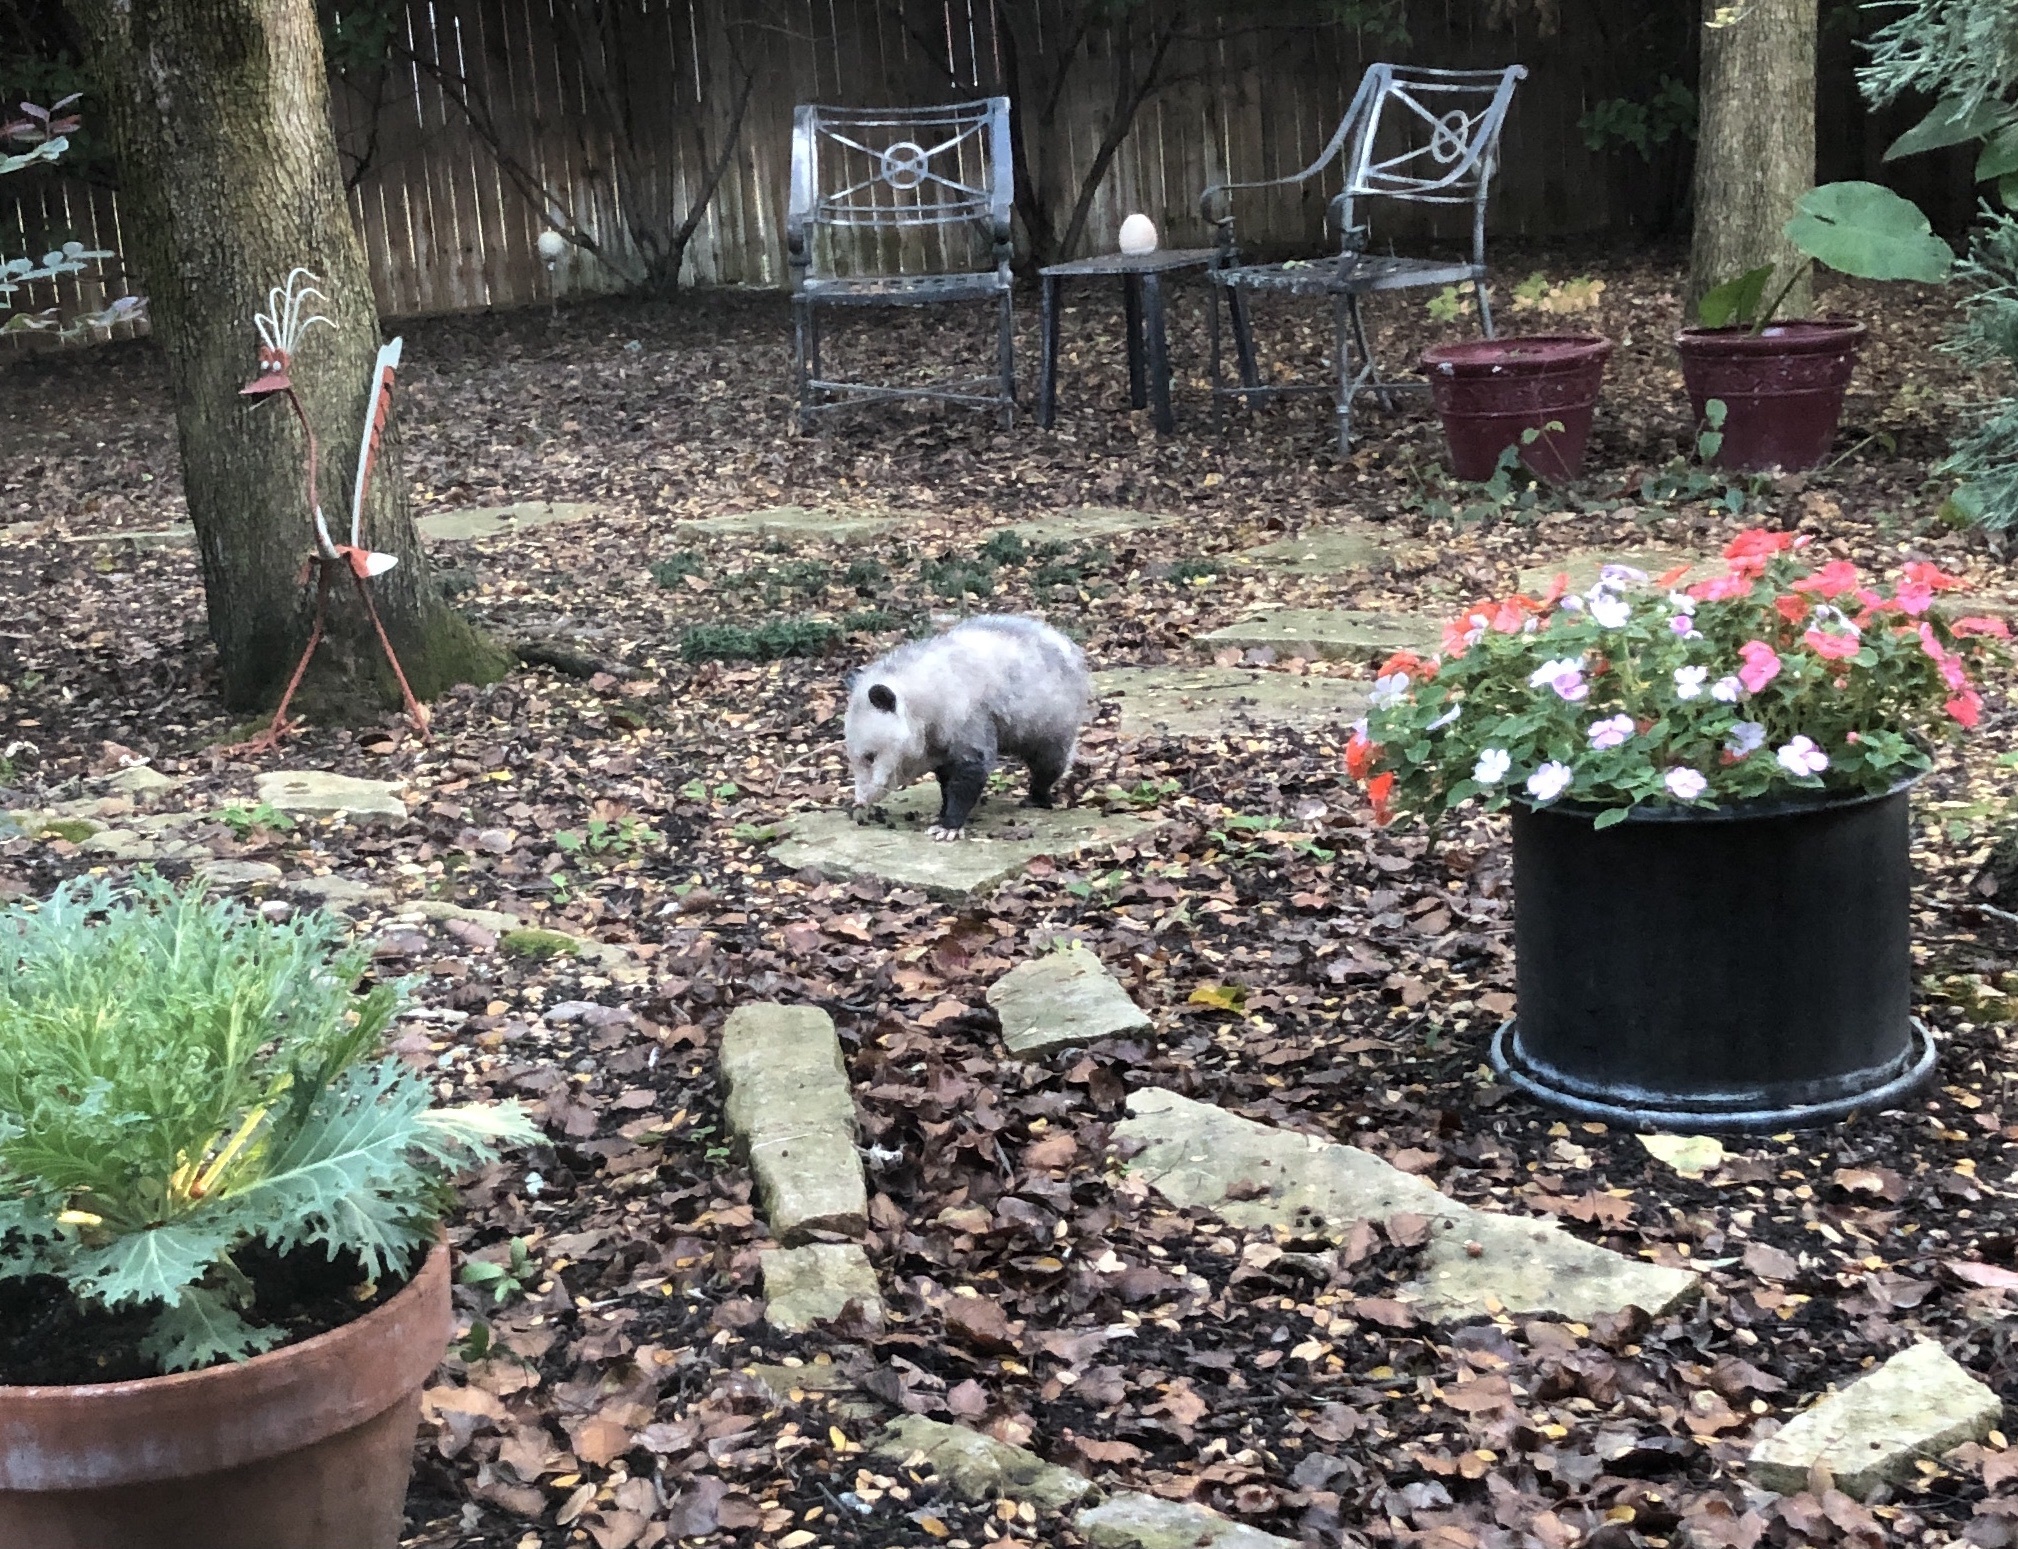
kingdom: Animalia
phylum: Chordata
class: Mammalia
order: Didelphimorphia
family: Didelphidae
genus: Didelphis
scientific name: Didelphis virginiana
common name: Virginia opossum
